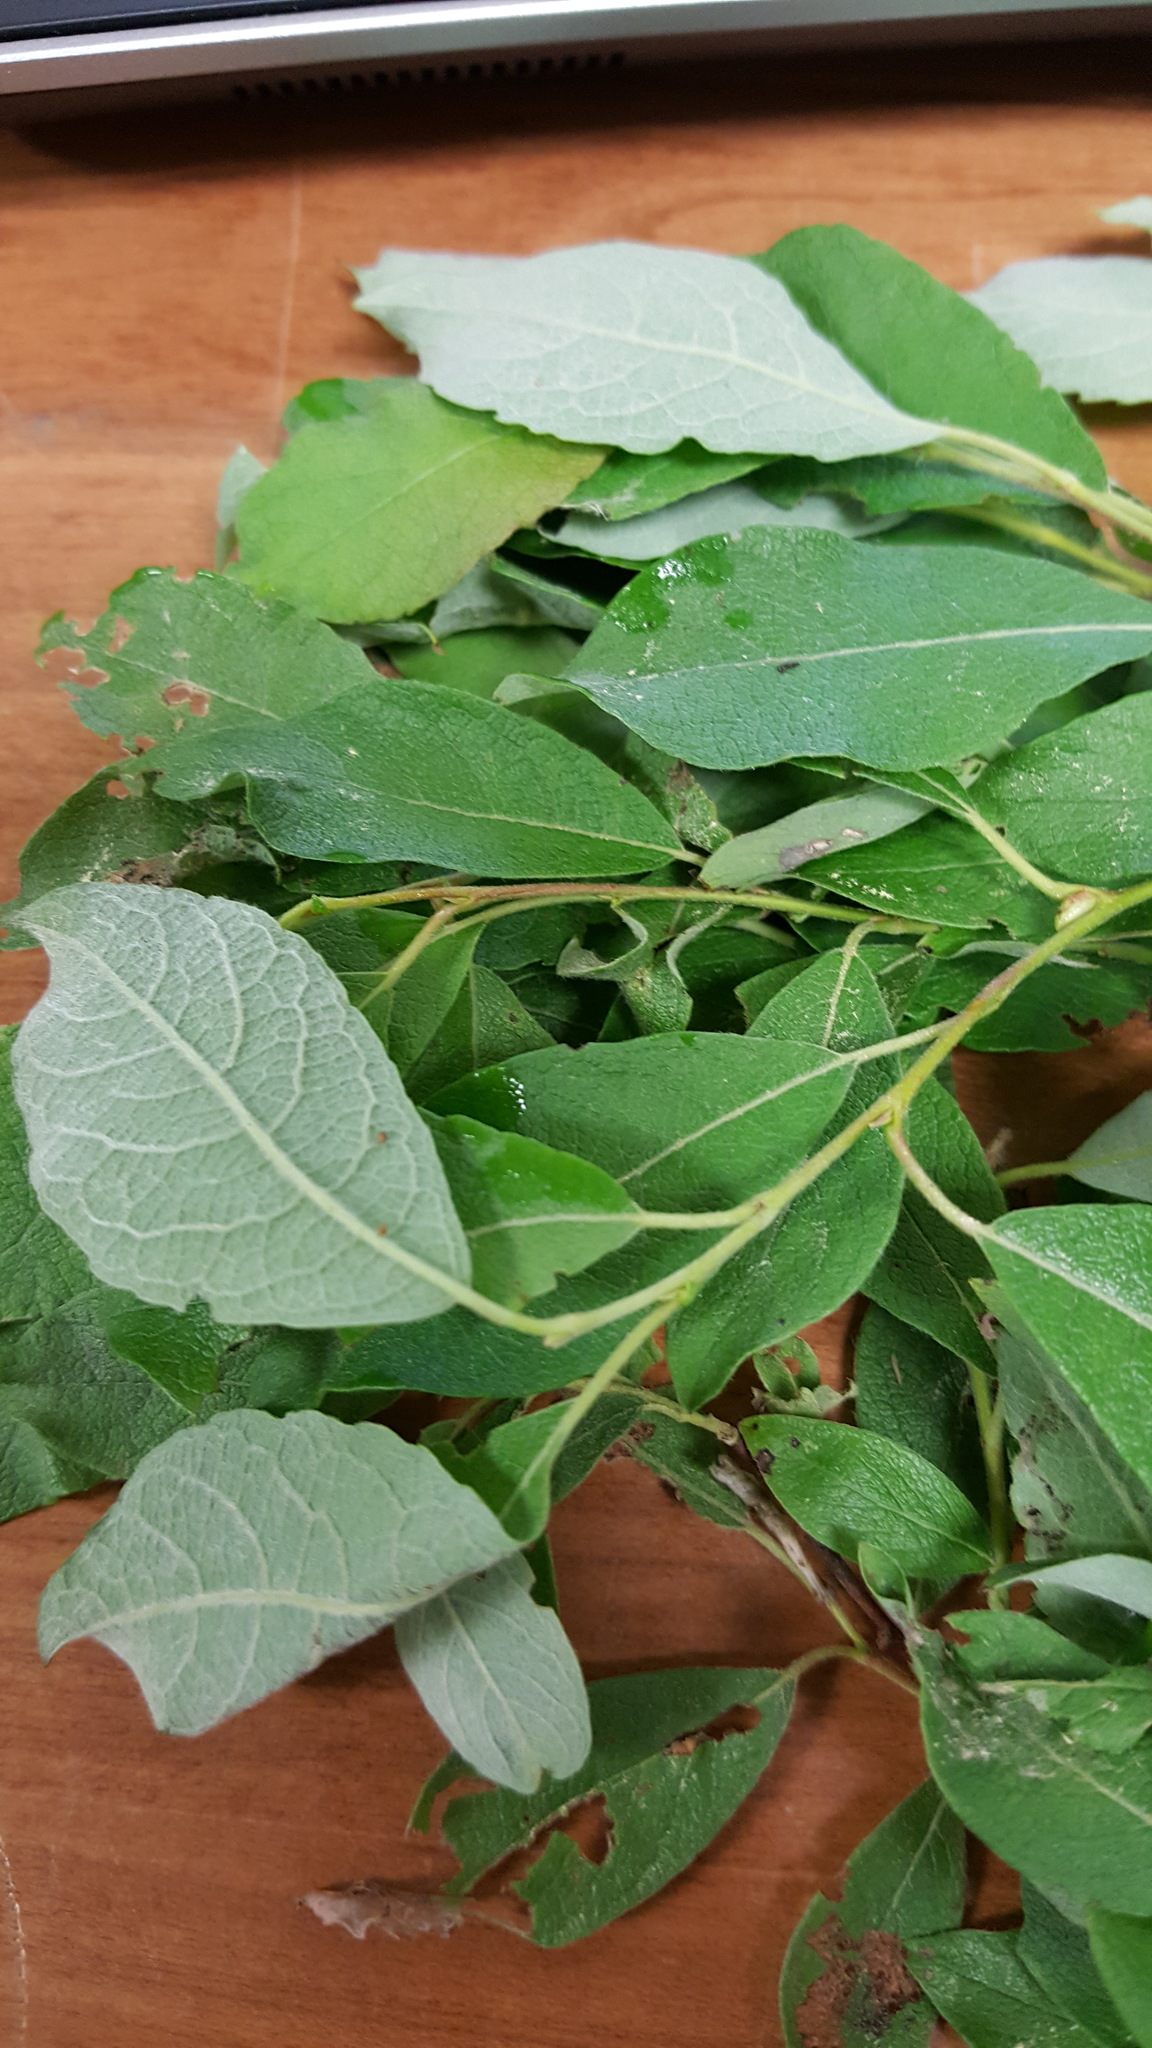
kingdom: Plantae
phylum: Tracheophyta
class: Magnoliopsida
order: Malpighiales
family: Salicaceae
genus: Salix
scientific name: Salix bebbiana
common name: Bebb's willow
